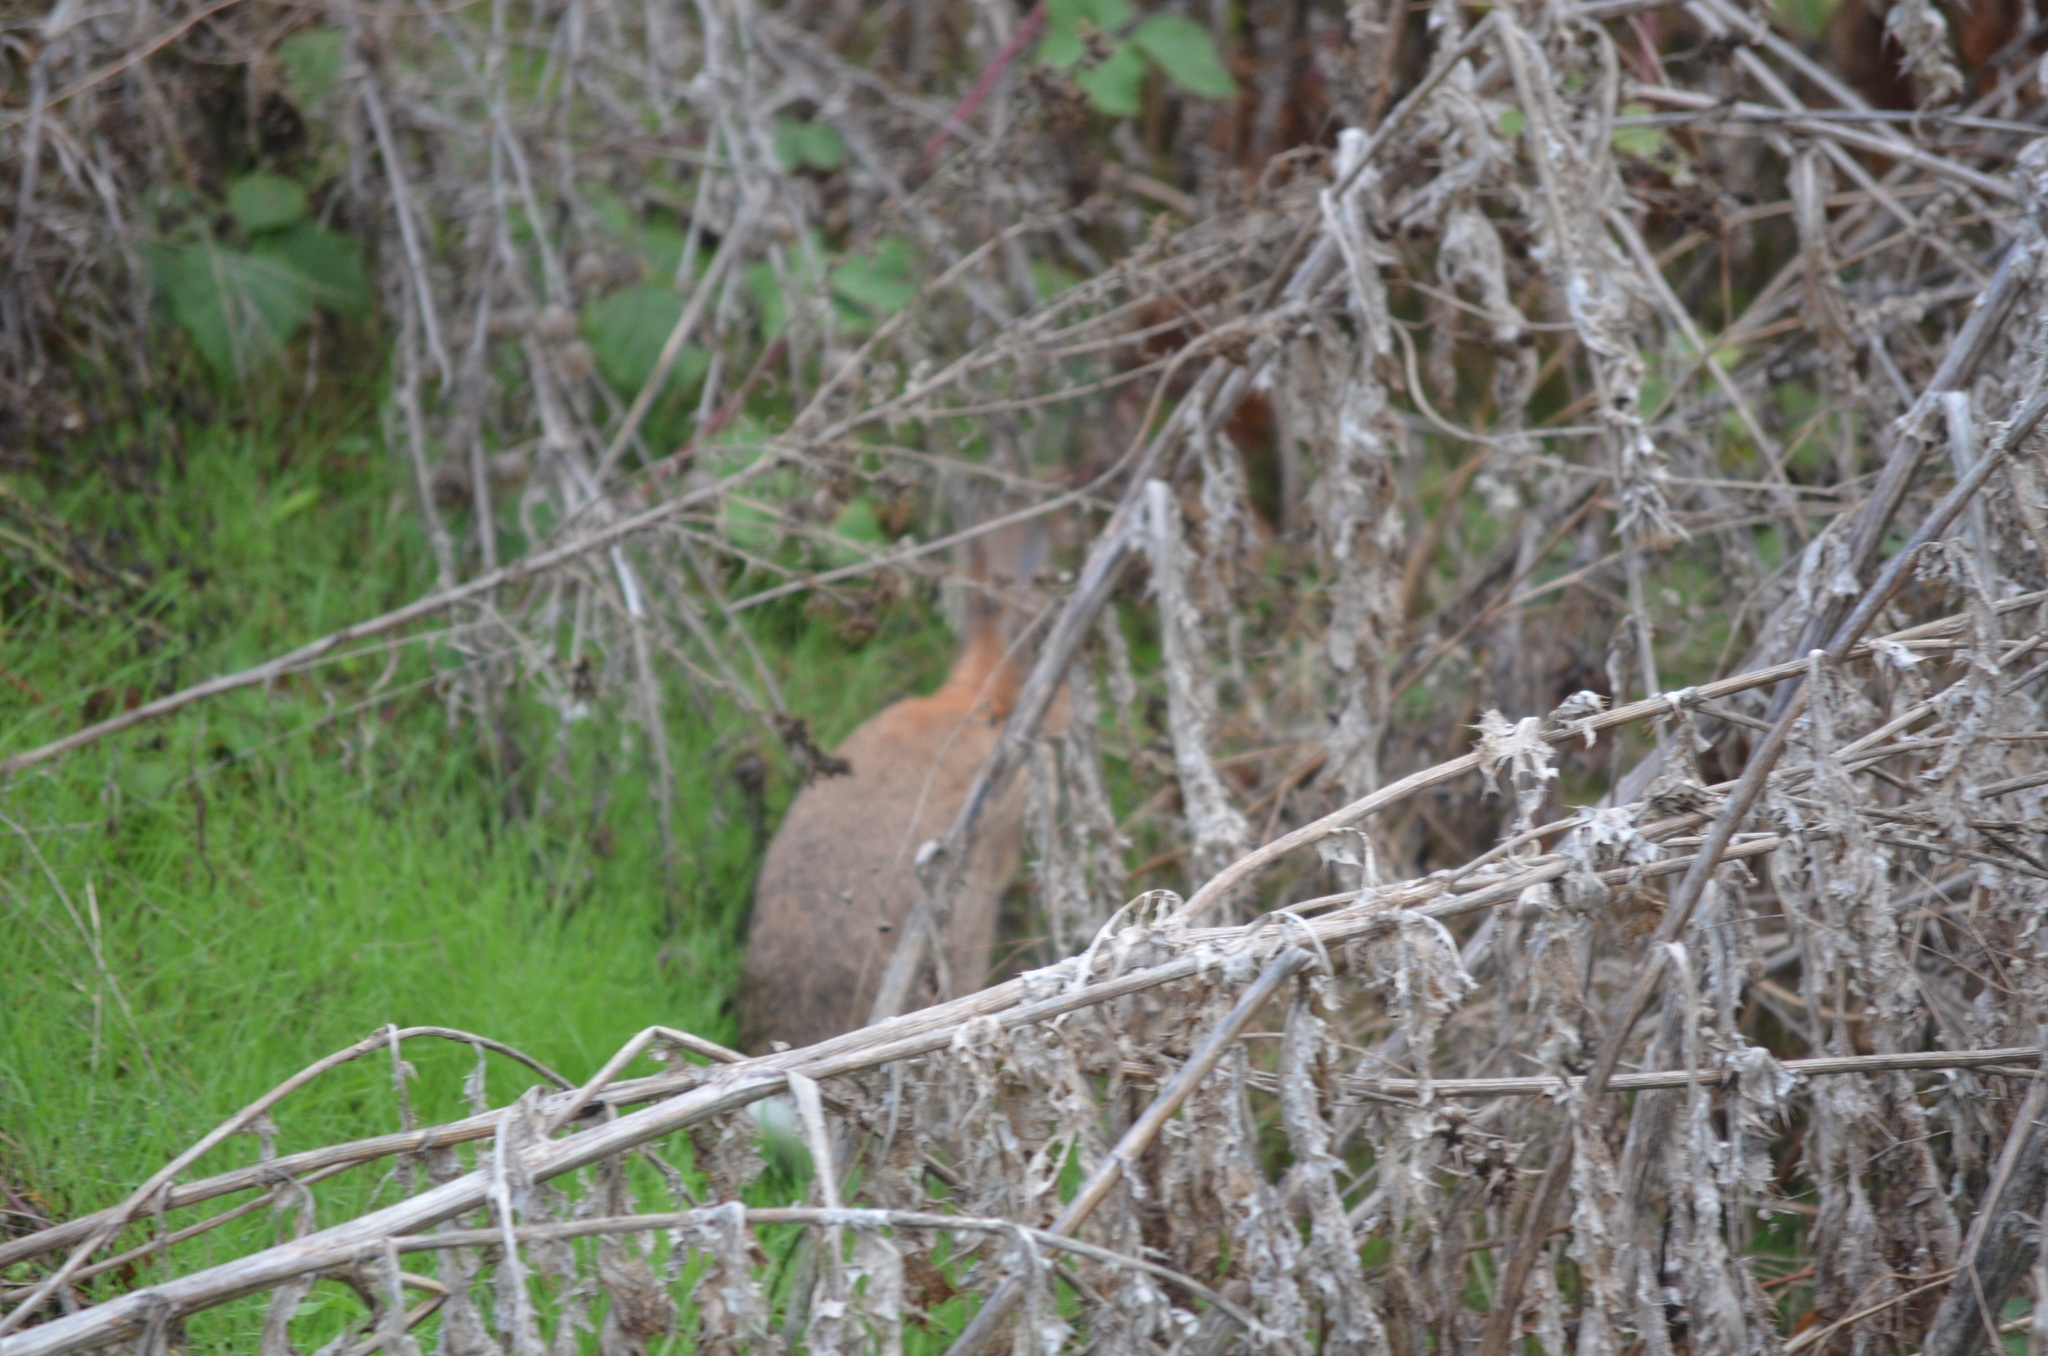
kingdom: Animalia
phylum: Chordata
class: Mammalia
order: Lagomorpha
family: Leporidae
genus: Oryctolagus
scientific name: Oryctolagus cuniculus
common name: European rabbit
